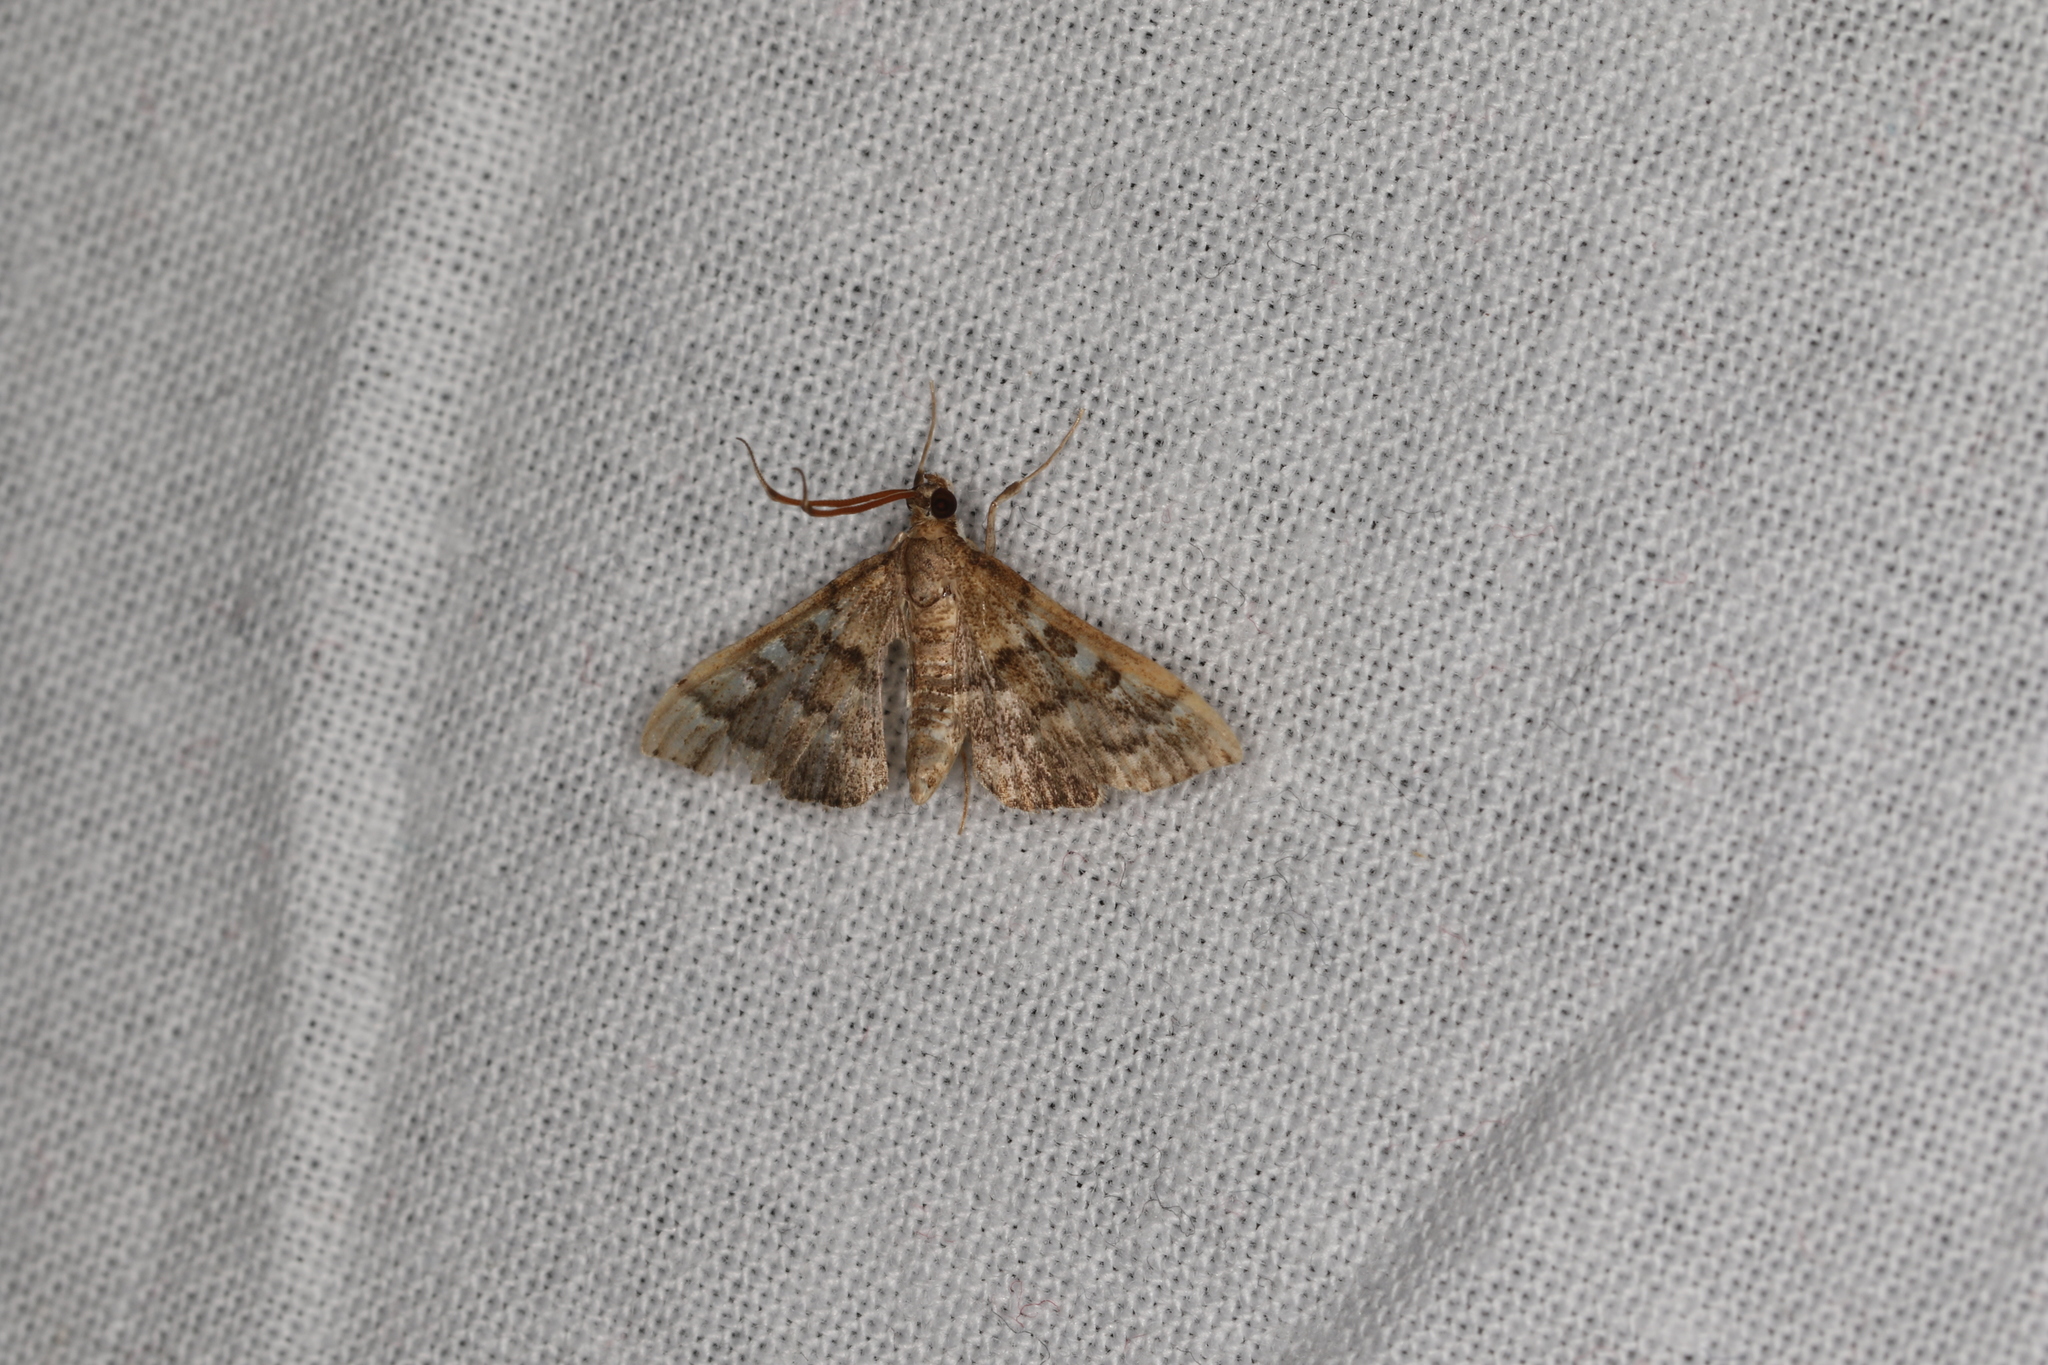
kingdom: Animalia
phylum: Arthropoda
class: Insecta
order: Lepidoptera
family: Crambidae
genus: Nacoleia
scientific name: Nacoleia rhoeoalis
